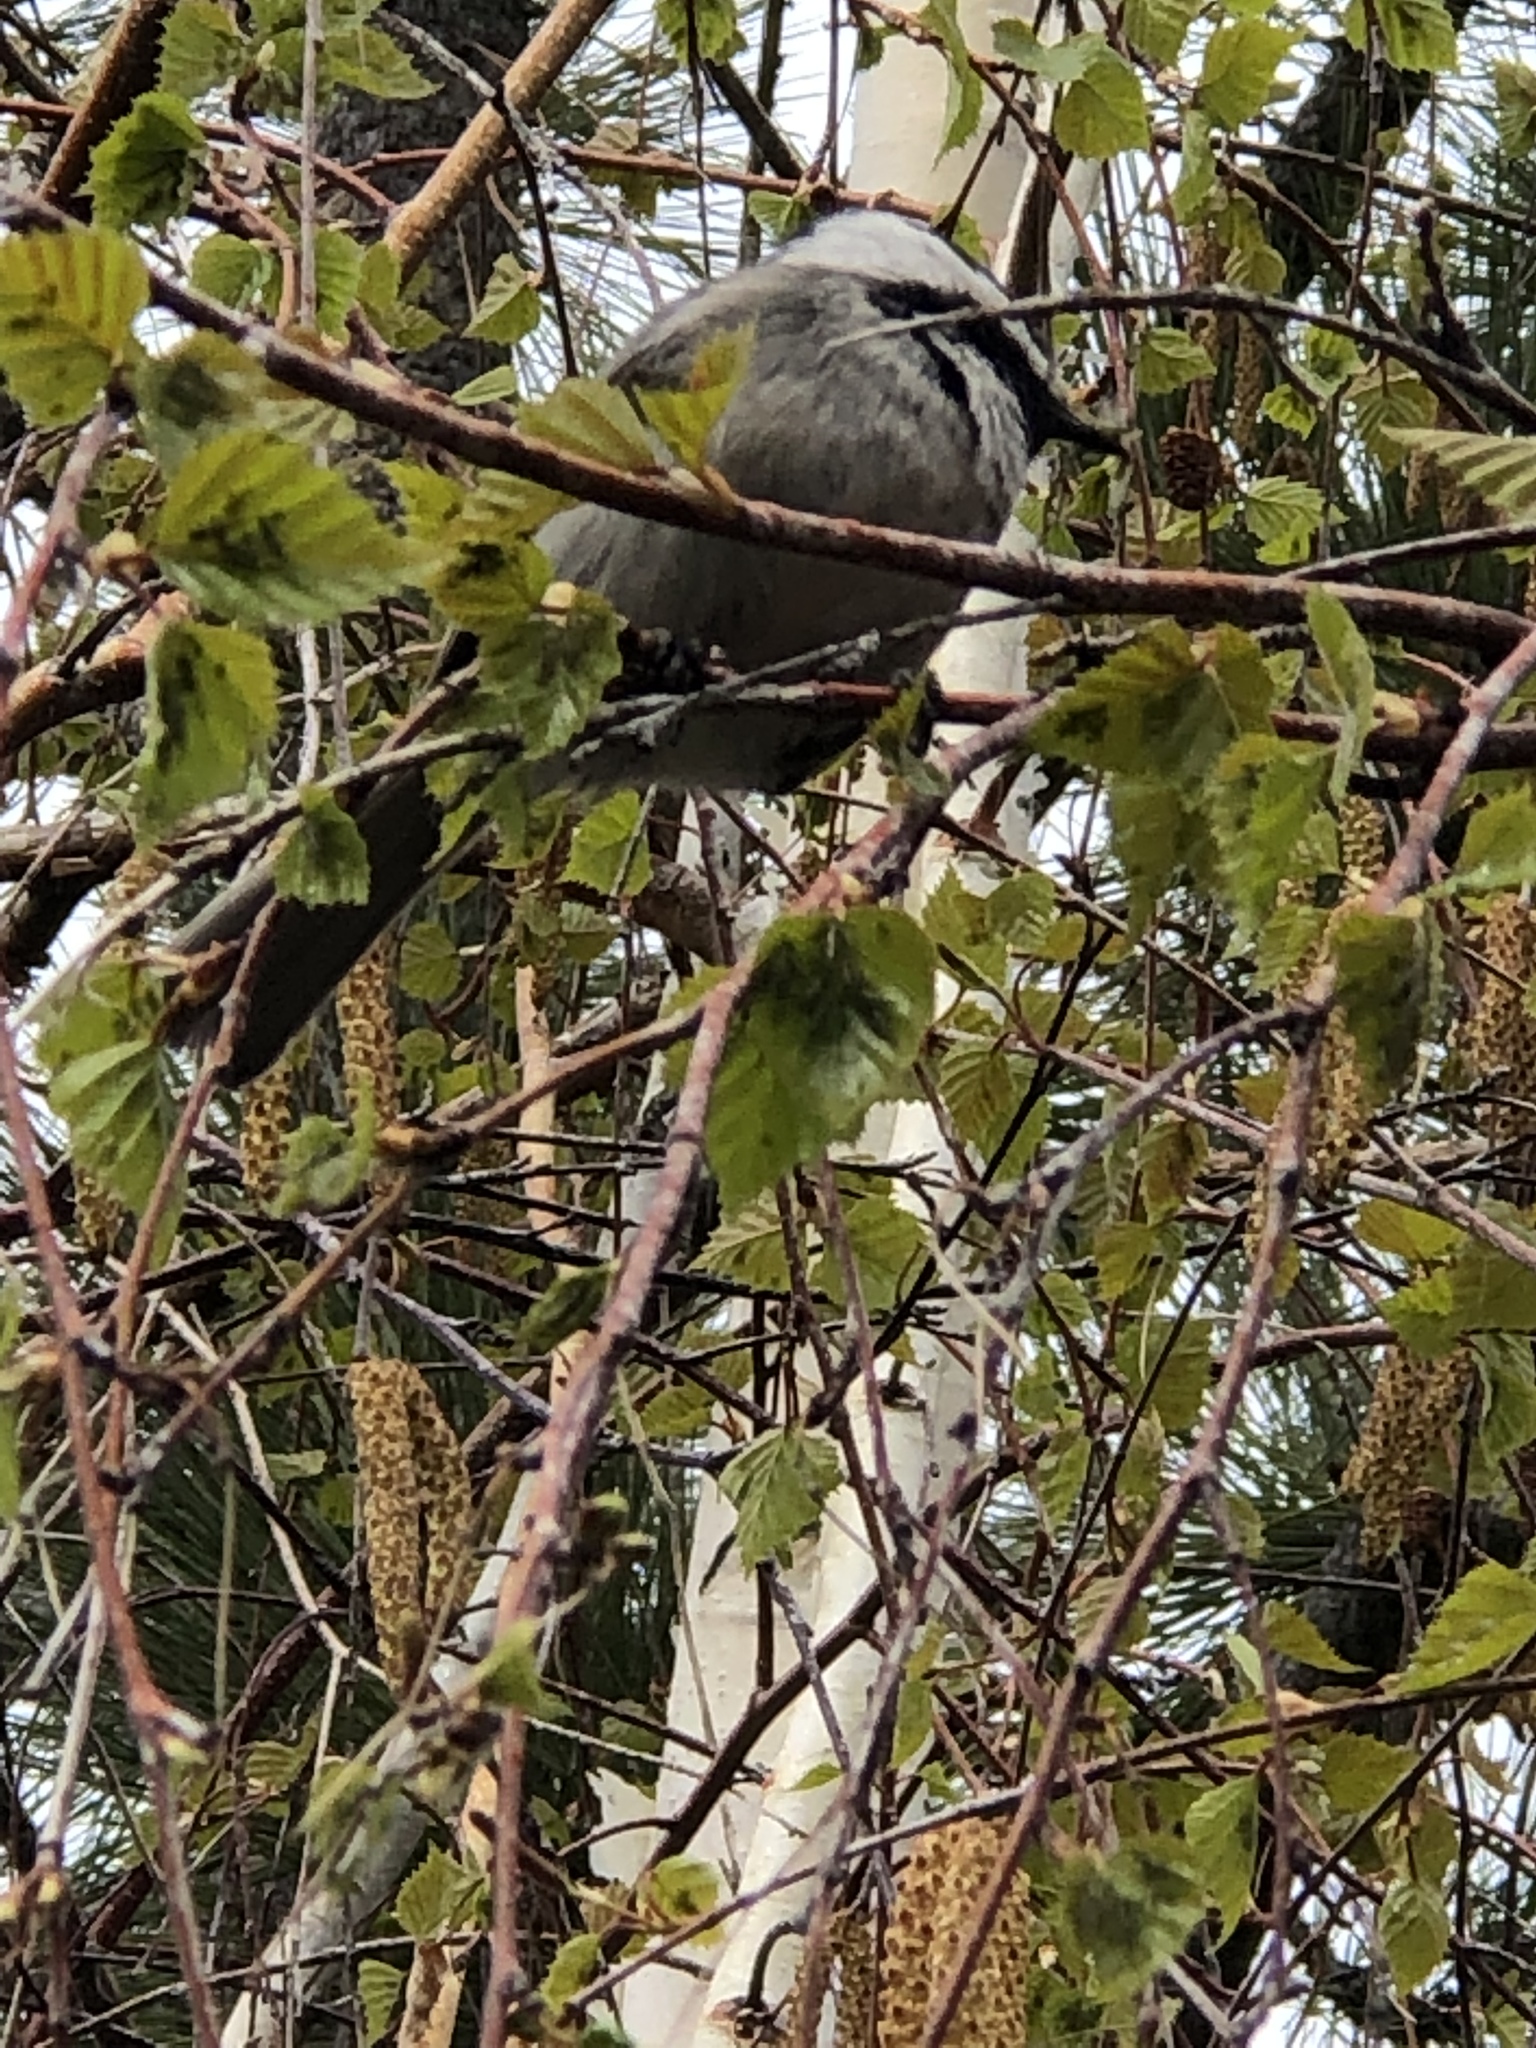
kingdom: Animalia
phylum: Chordata
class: Aves
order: Passeriformes
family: Paridae
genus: Poecile
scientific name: Poecile gambeli
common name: Mountain chickadee
